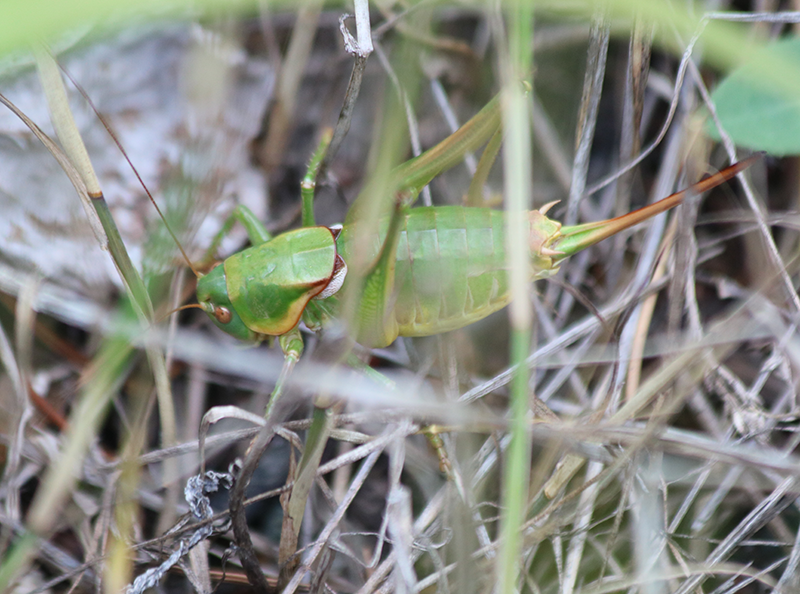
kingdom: Animalia
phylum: Arthropoda
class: Insecta
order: Orthoptera
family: Tettigoniidae
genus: Anabrus
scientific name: Anabrus longipes
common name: Long-legged anabrus
